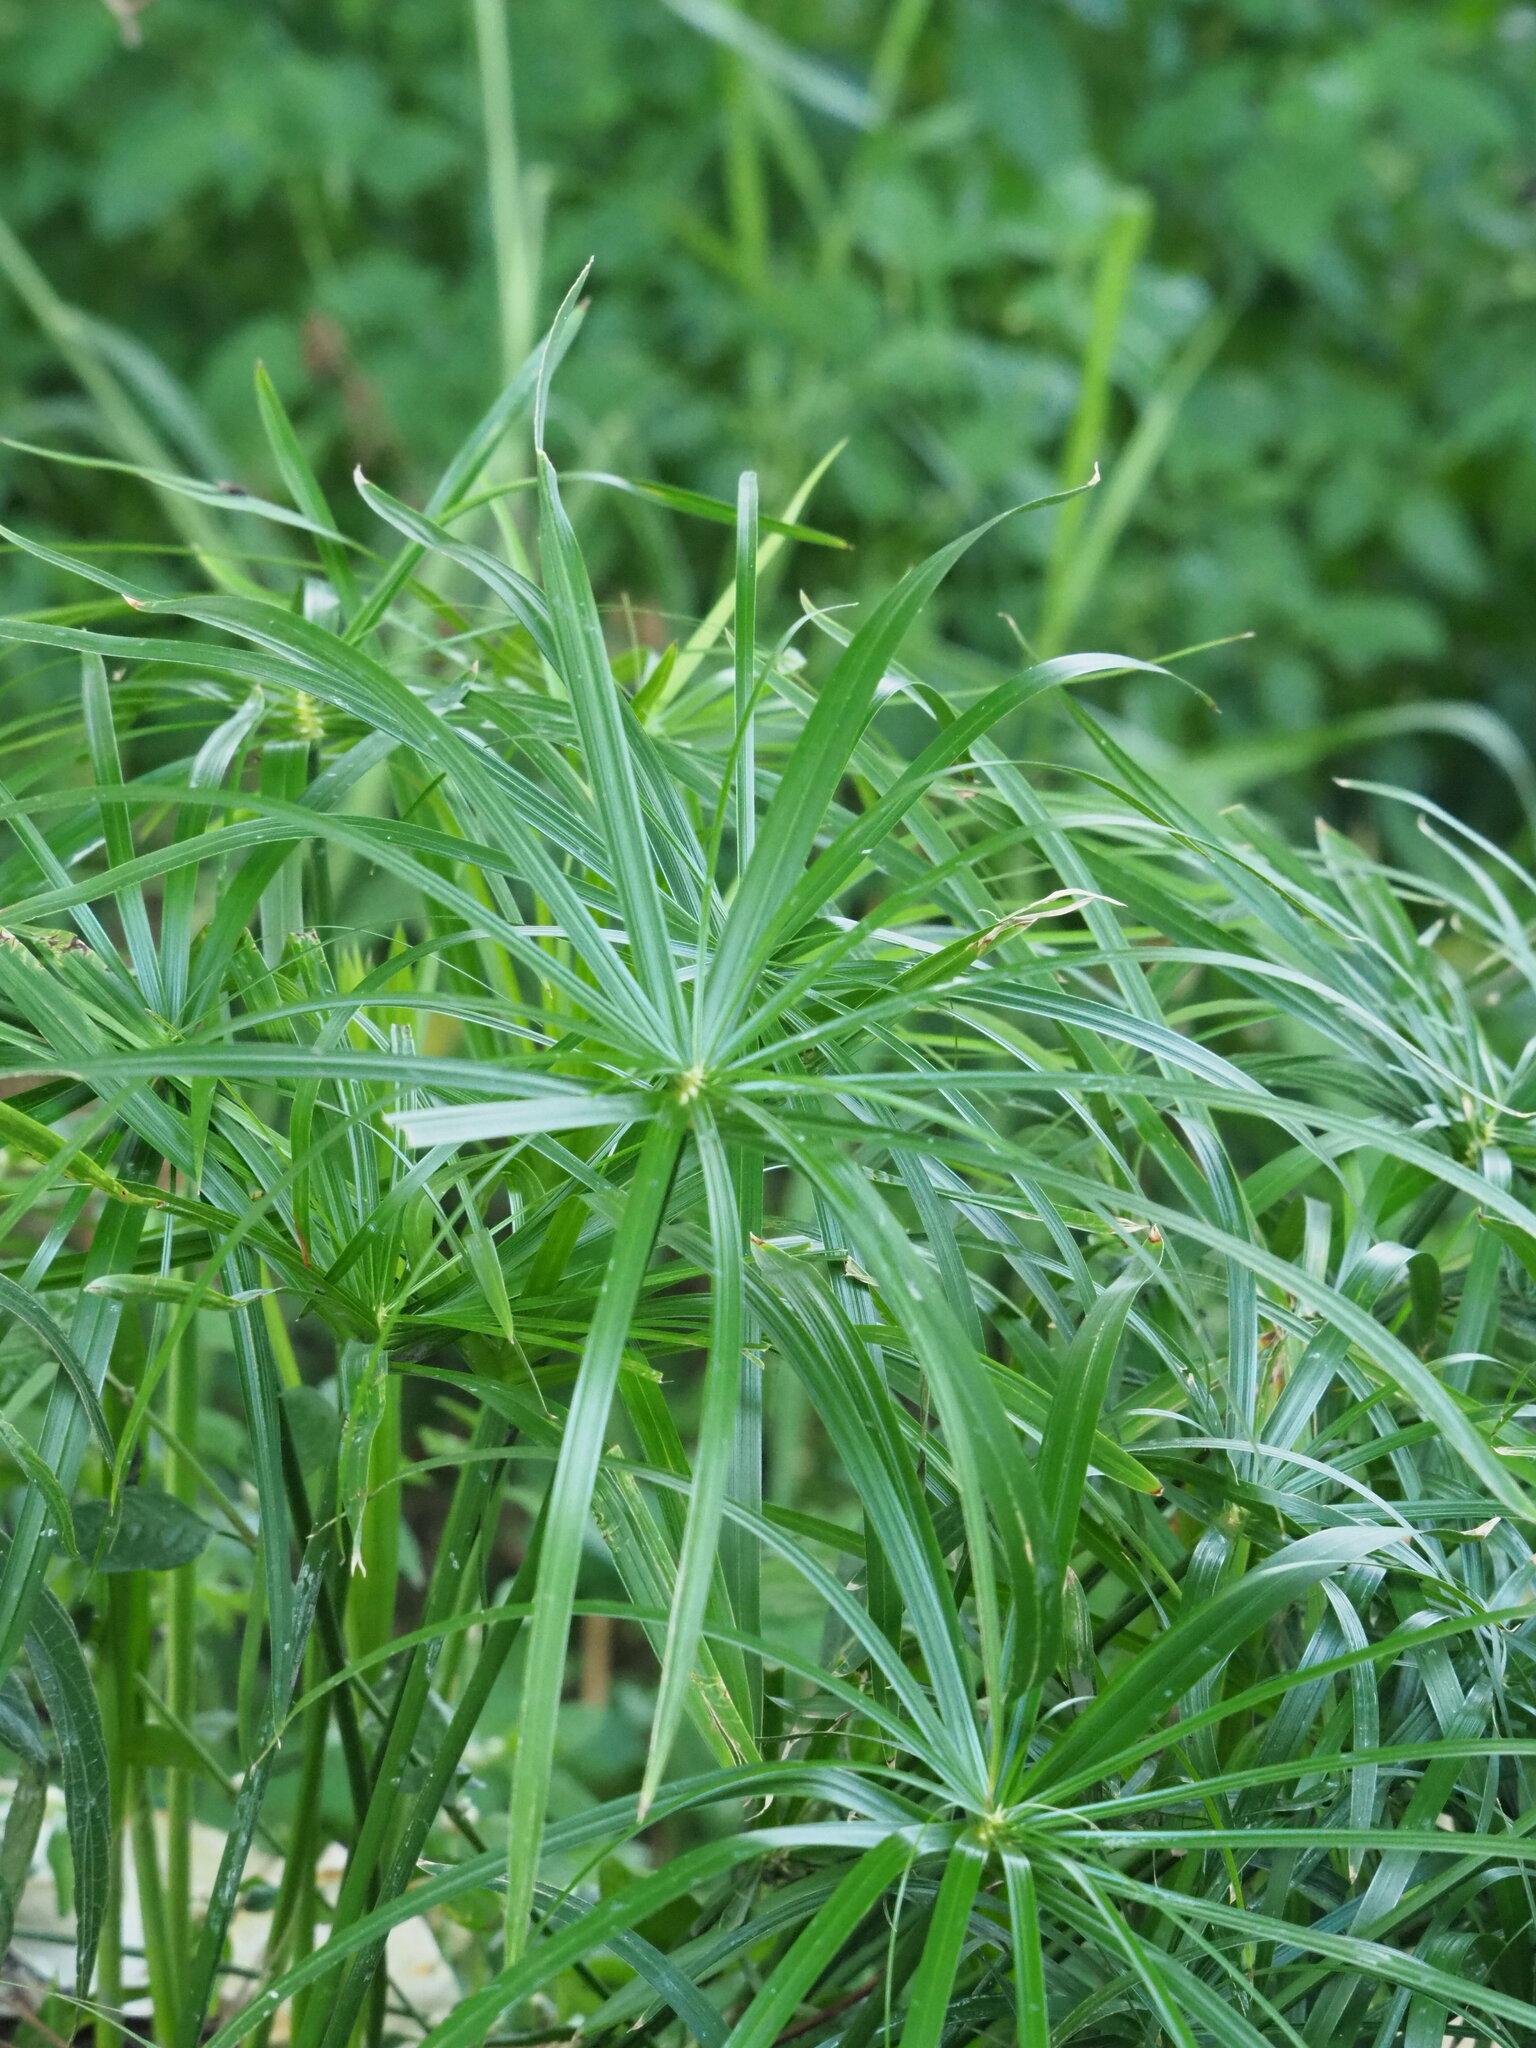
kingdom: Plantae
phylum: Tracheophyta
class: Liliopsida
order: Poales
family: Cyperaceae
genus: Cyperus
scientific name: Cyperus alternifolius
